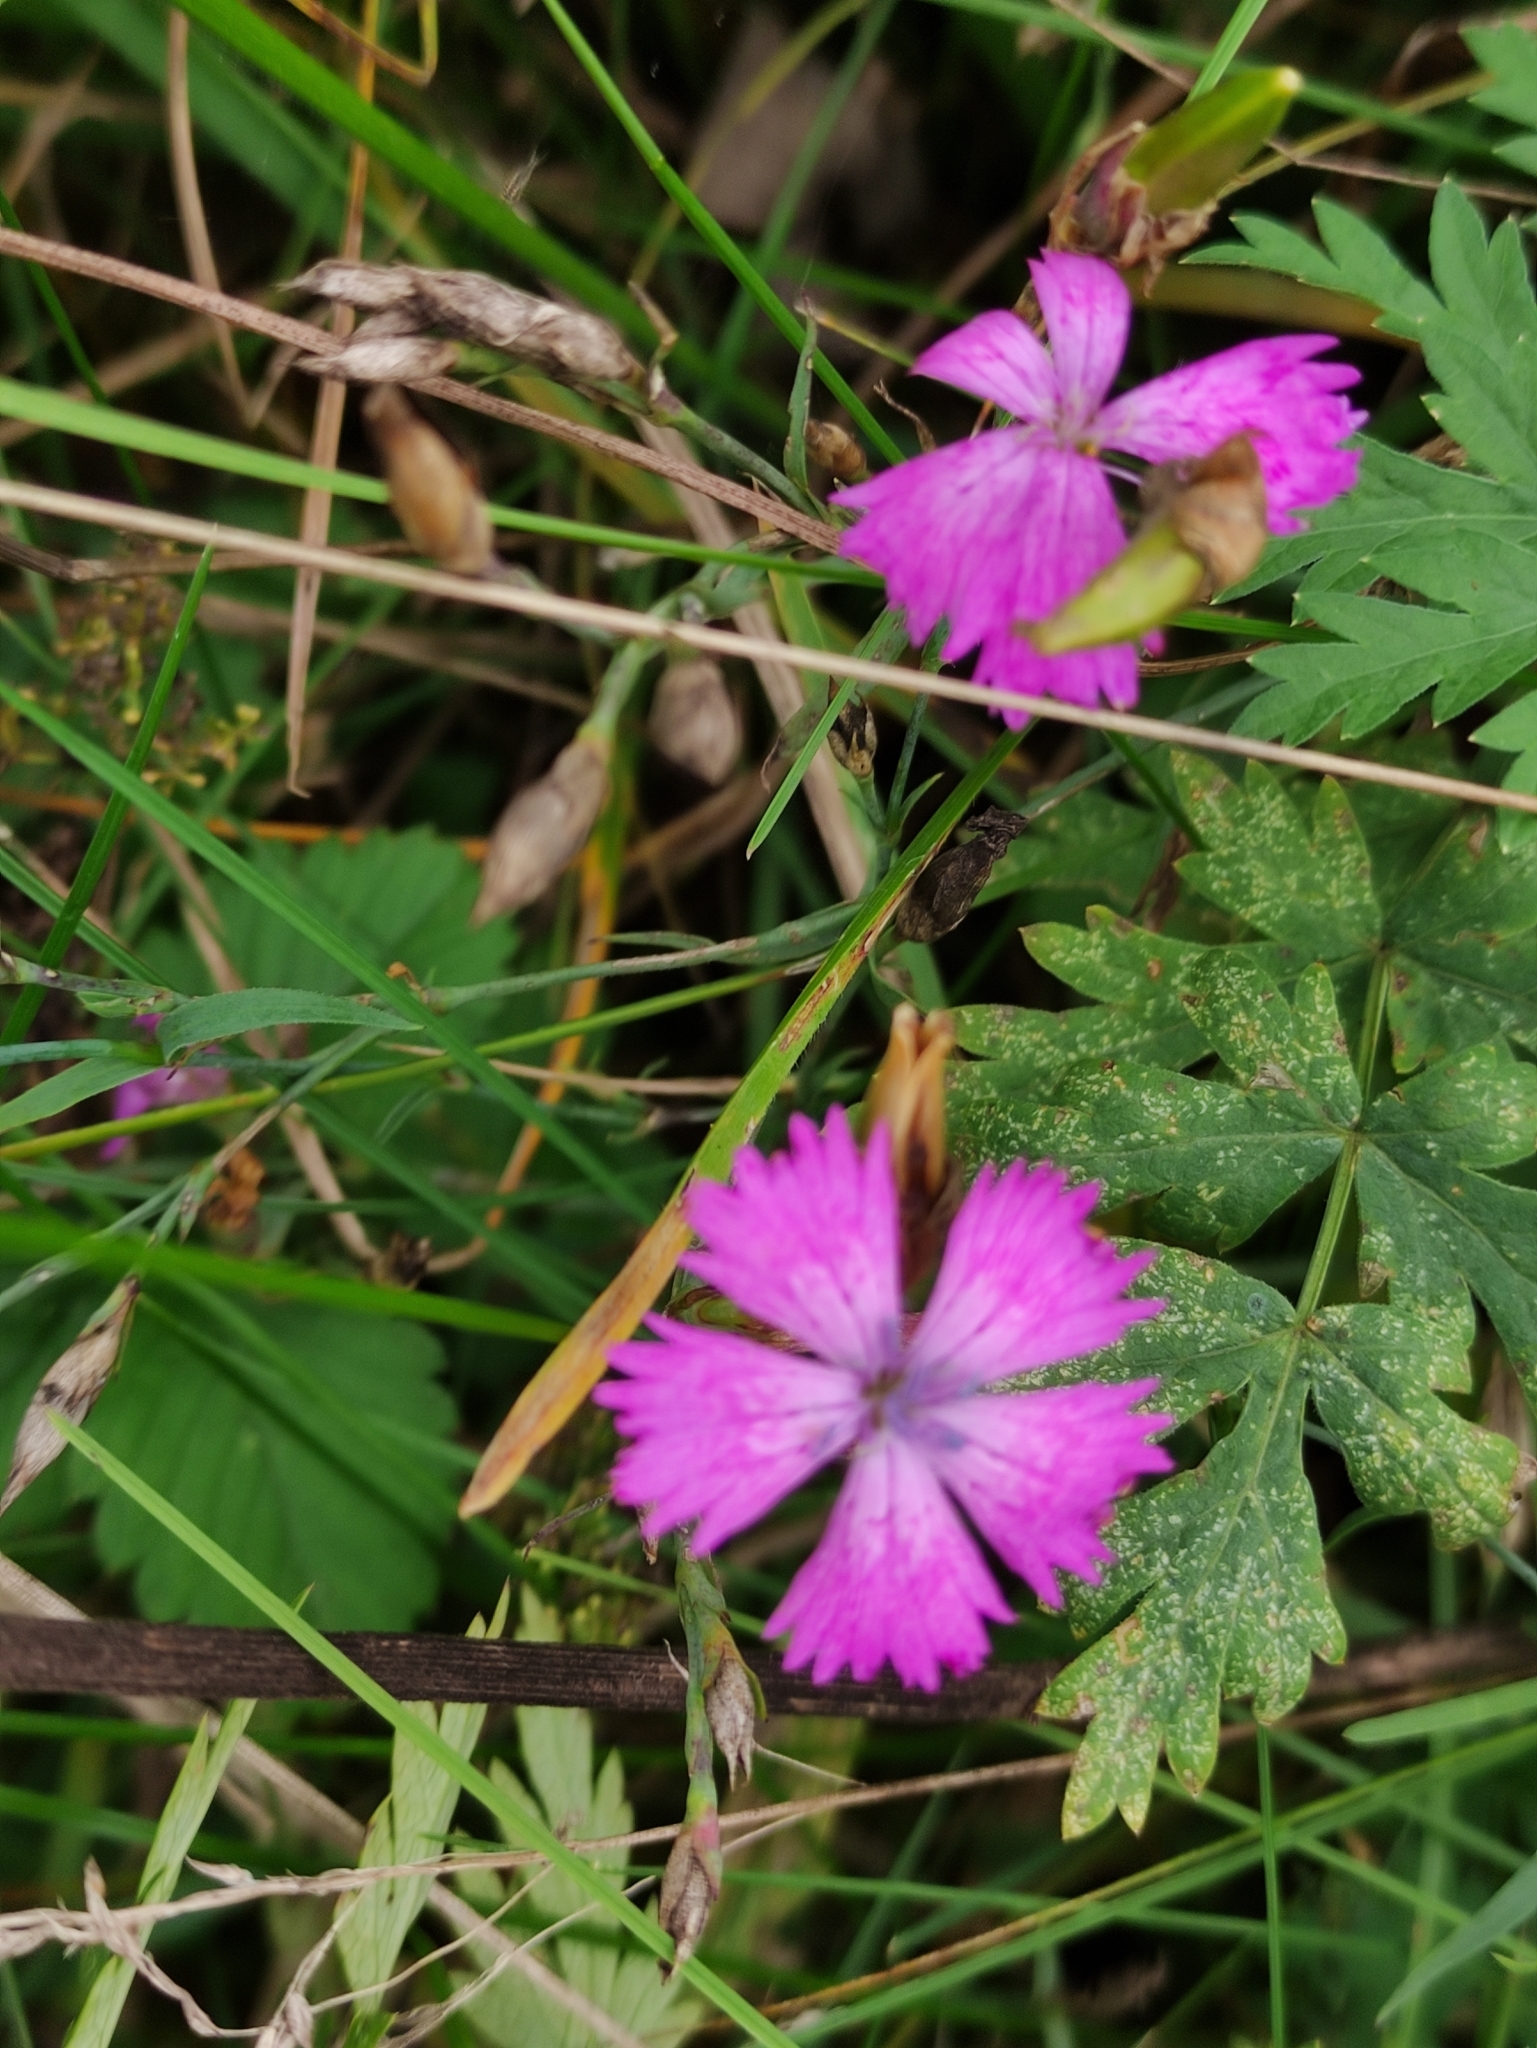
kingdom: Plantae
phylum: Tracheophyta
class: Magnoliopsida
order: Caryophyllales
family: Caryophyllaceae
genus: Dianthus
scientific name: Dianthus chinensis
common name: Rainbow pink
